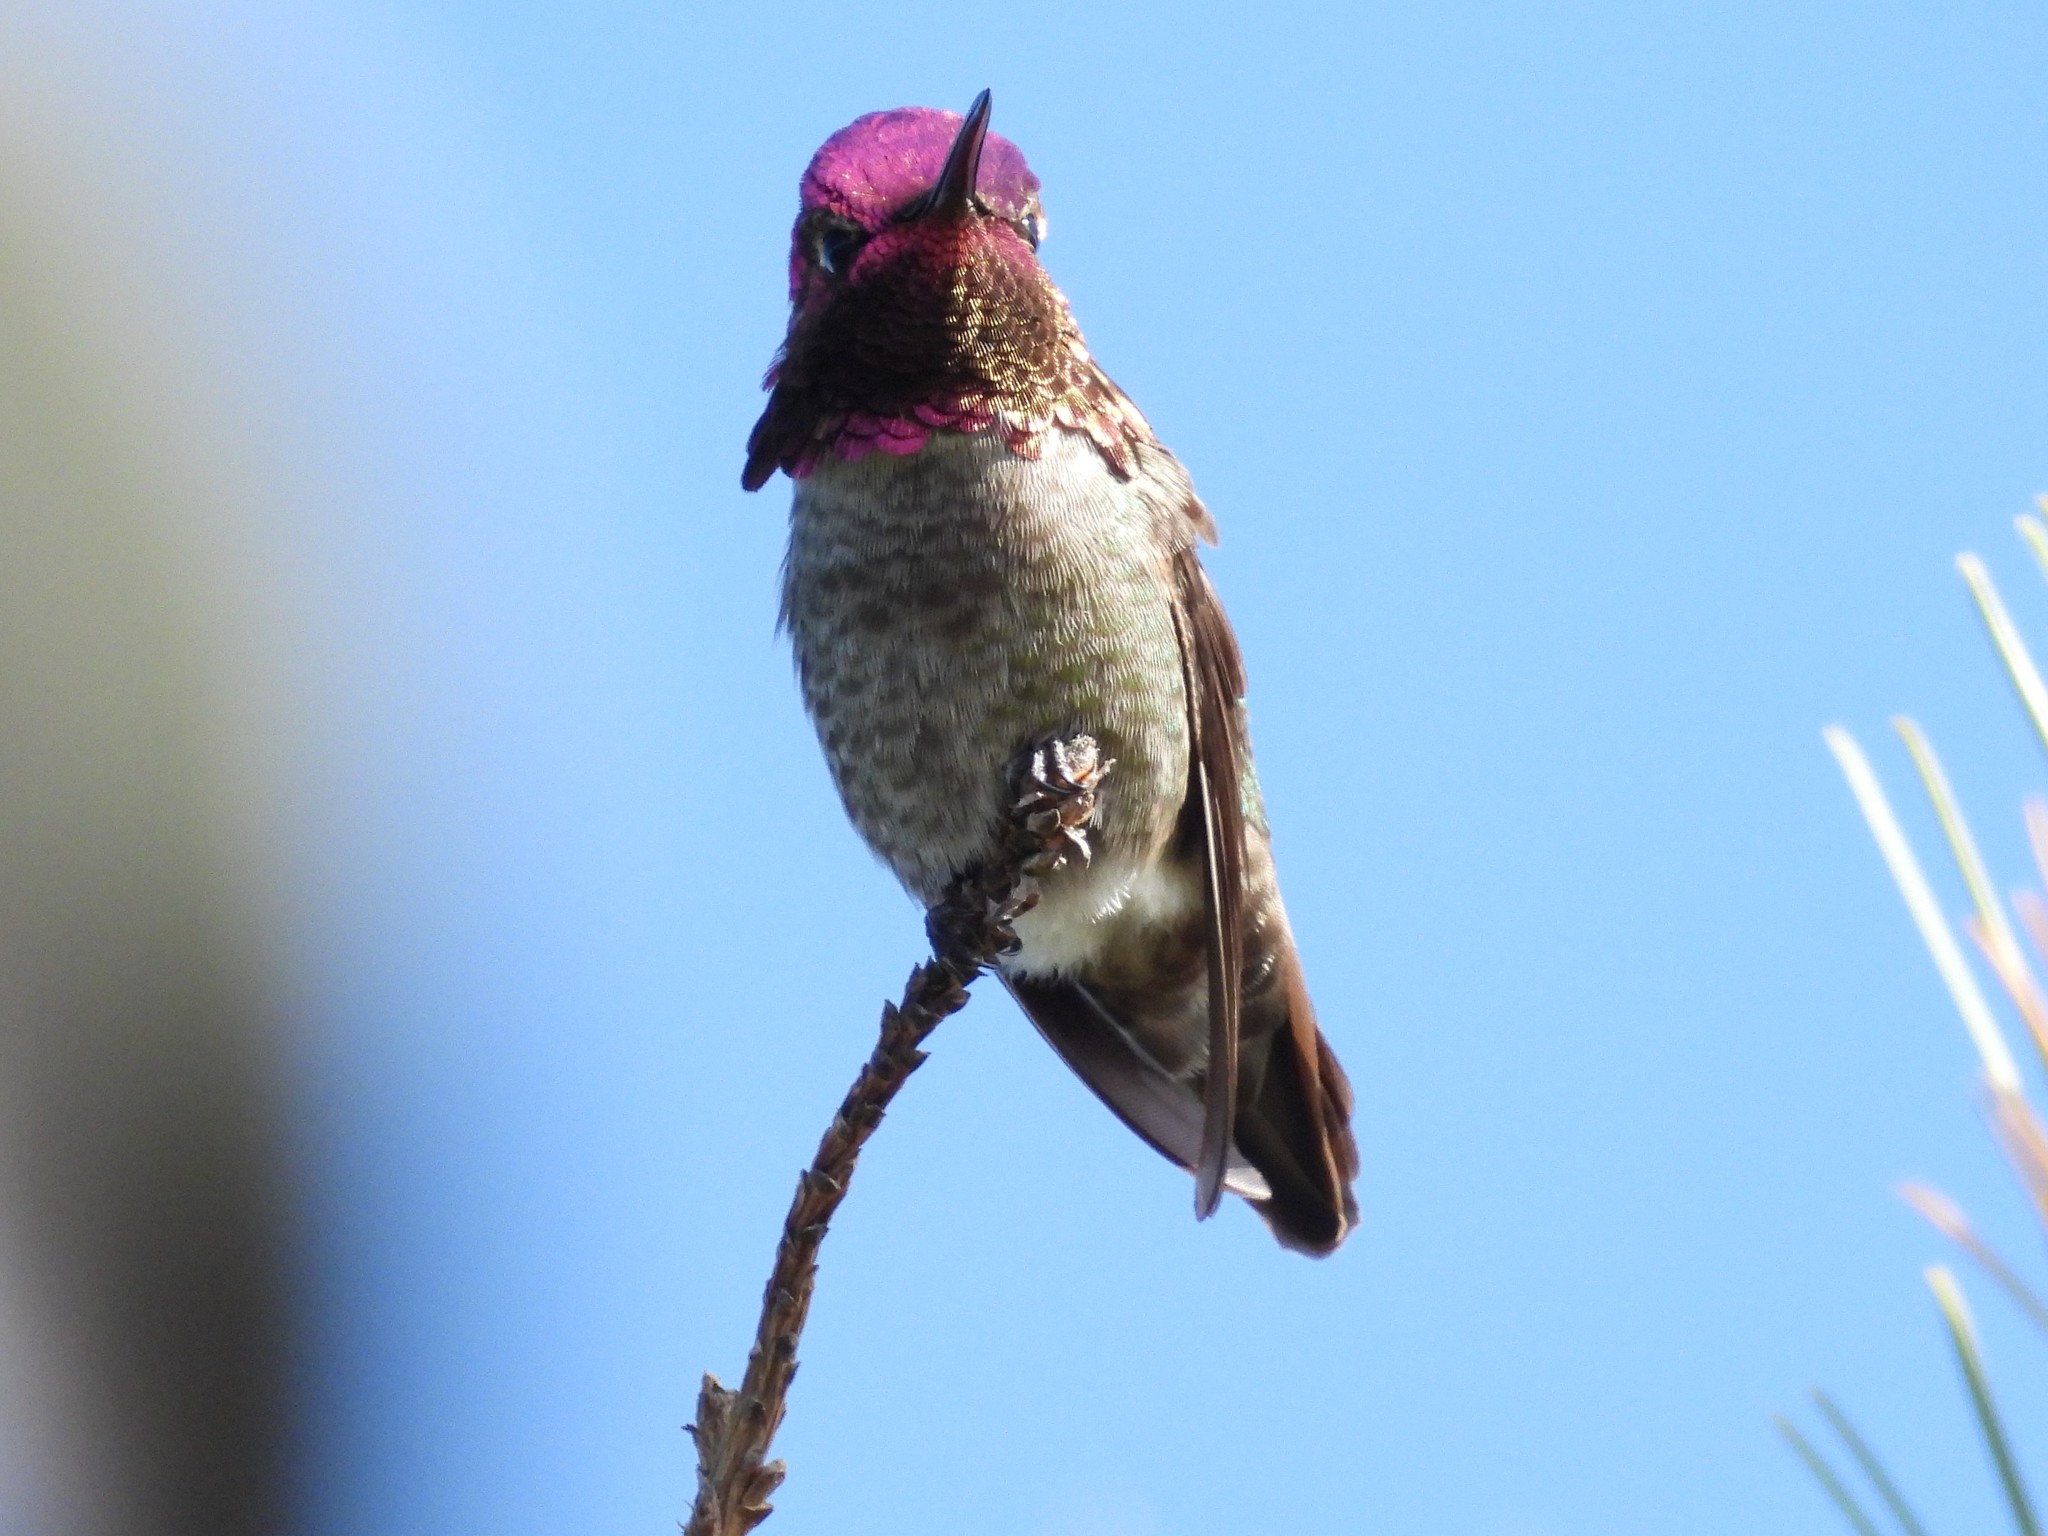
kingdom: Animalia
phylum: Chordata
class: Aves
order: Apodiformes
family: Trochilidae
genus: Calypte
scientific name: Calypte anna
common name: Anna's hummingbird
